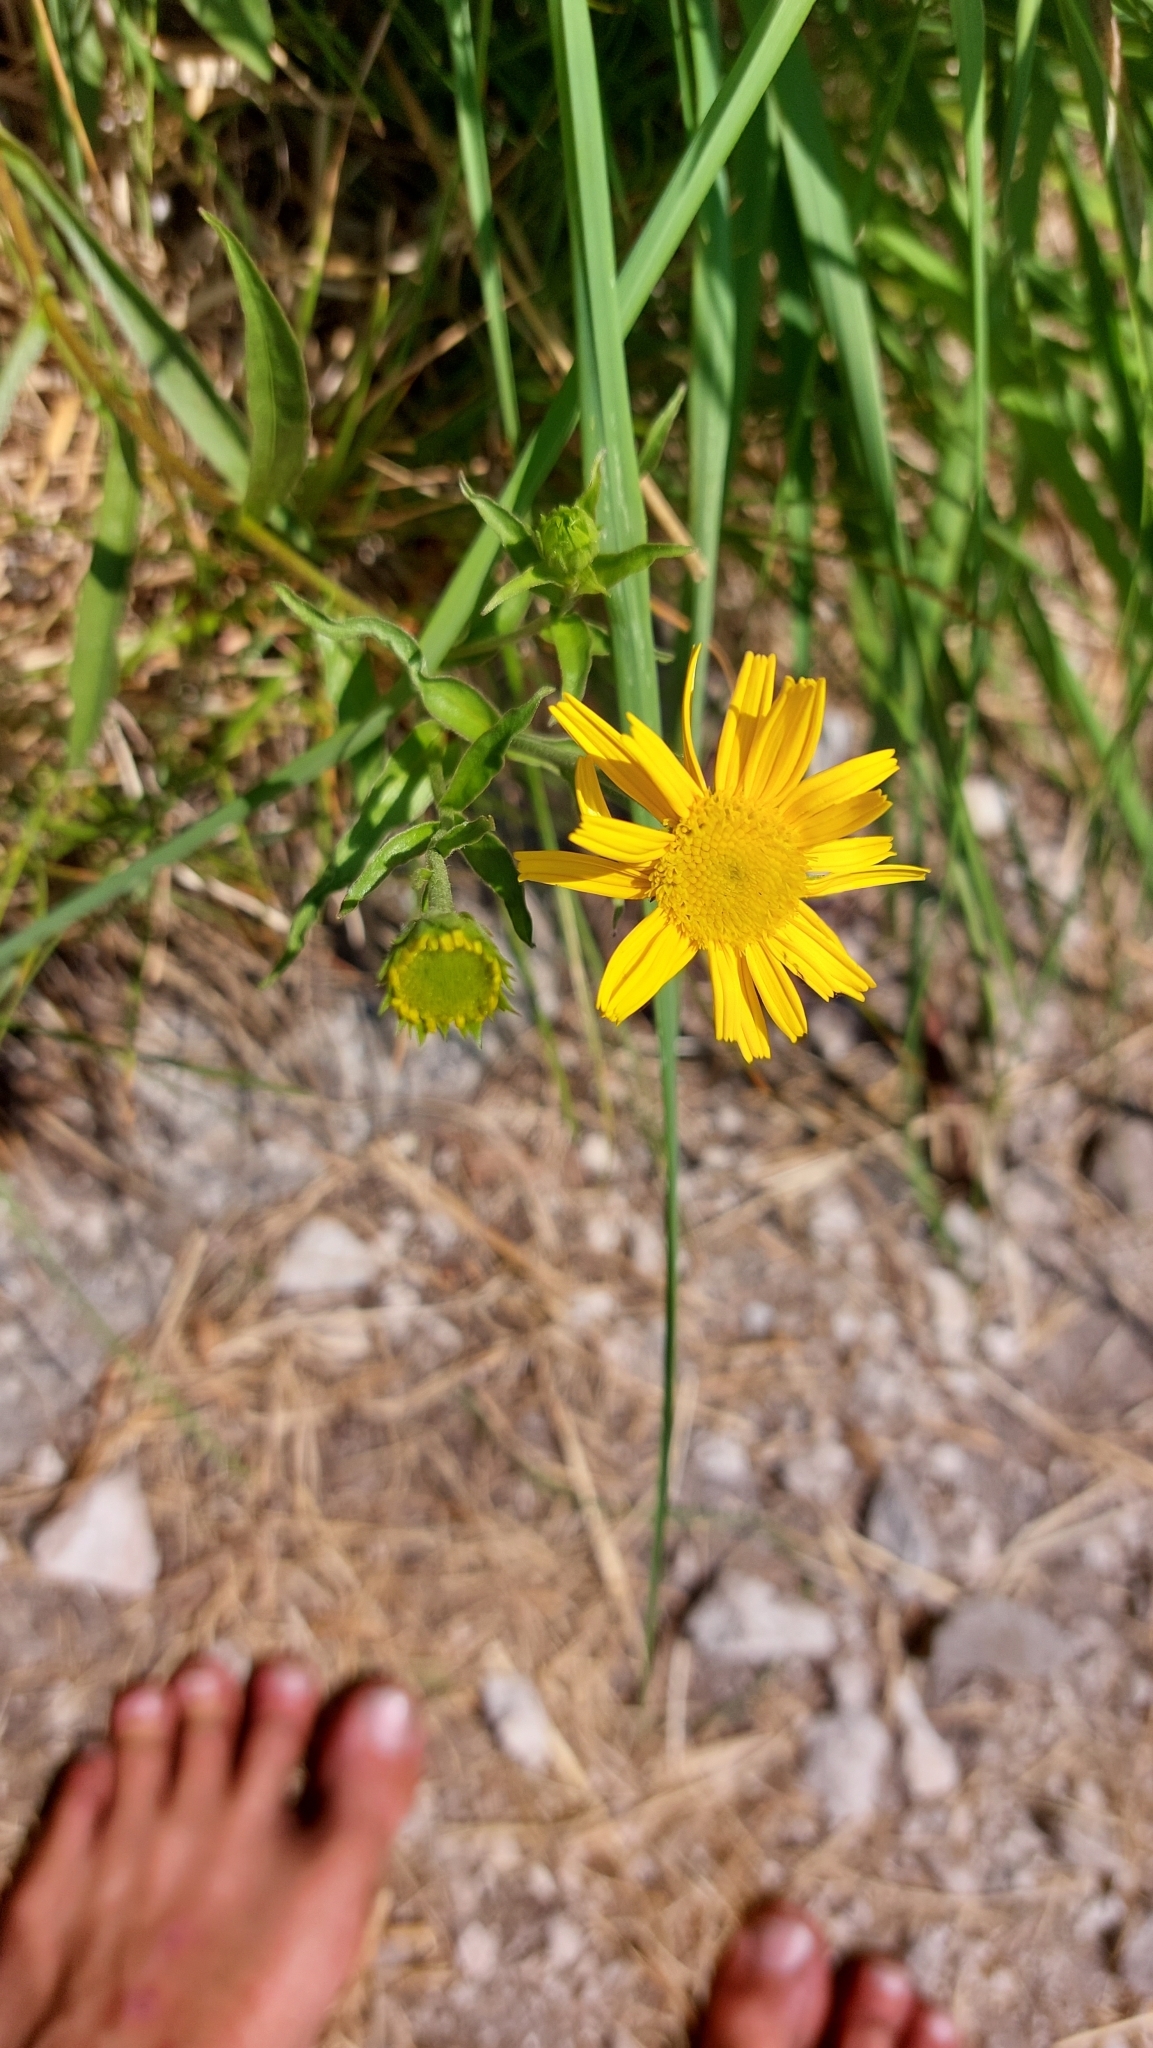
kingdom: Plantae
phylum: Tracheophyta
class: Magnoliopsida
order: Asterales
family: Asteraceae
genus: Buphthalmum
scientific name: Buphthalmum salicifolium
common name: Willow-leaved yellow-oxeye
